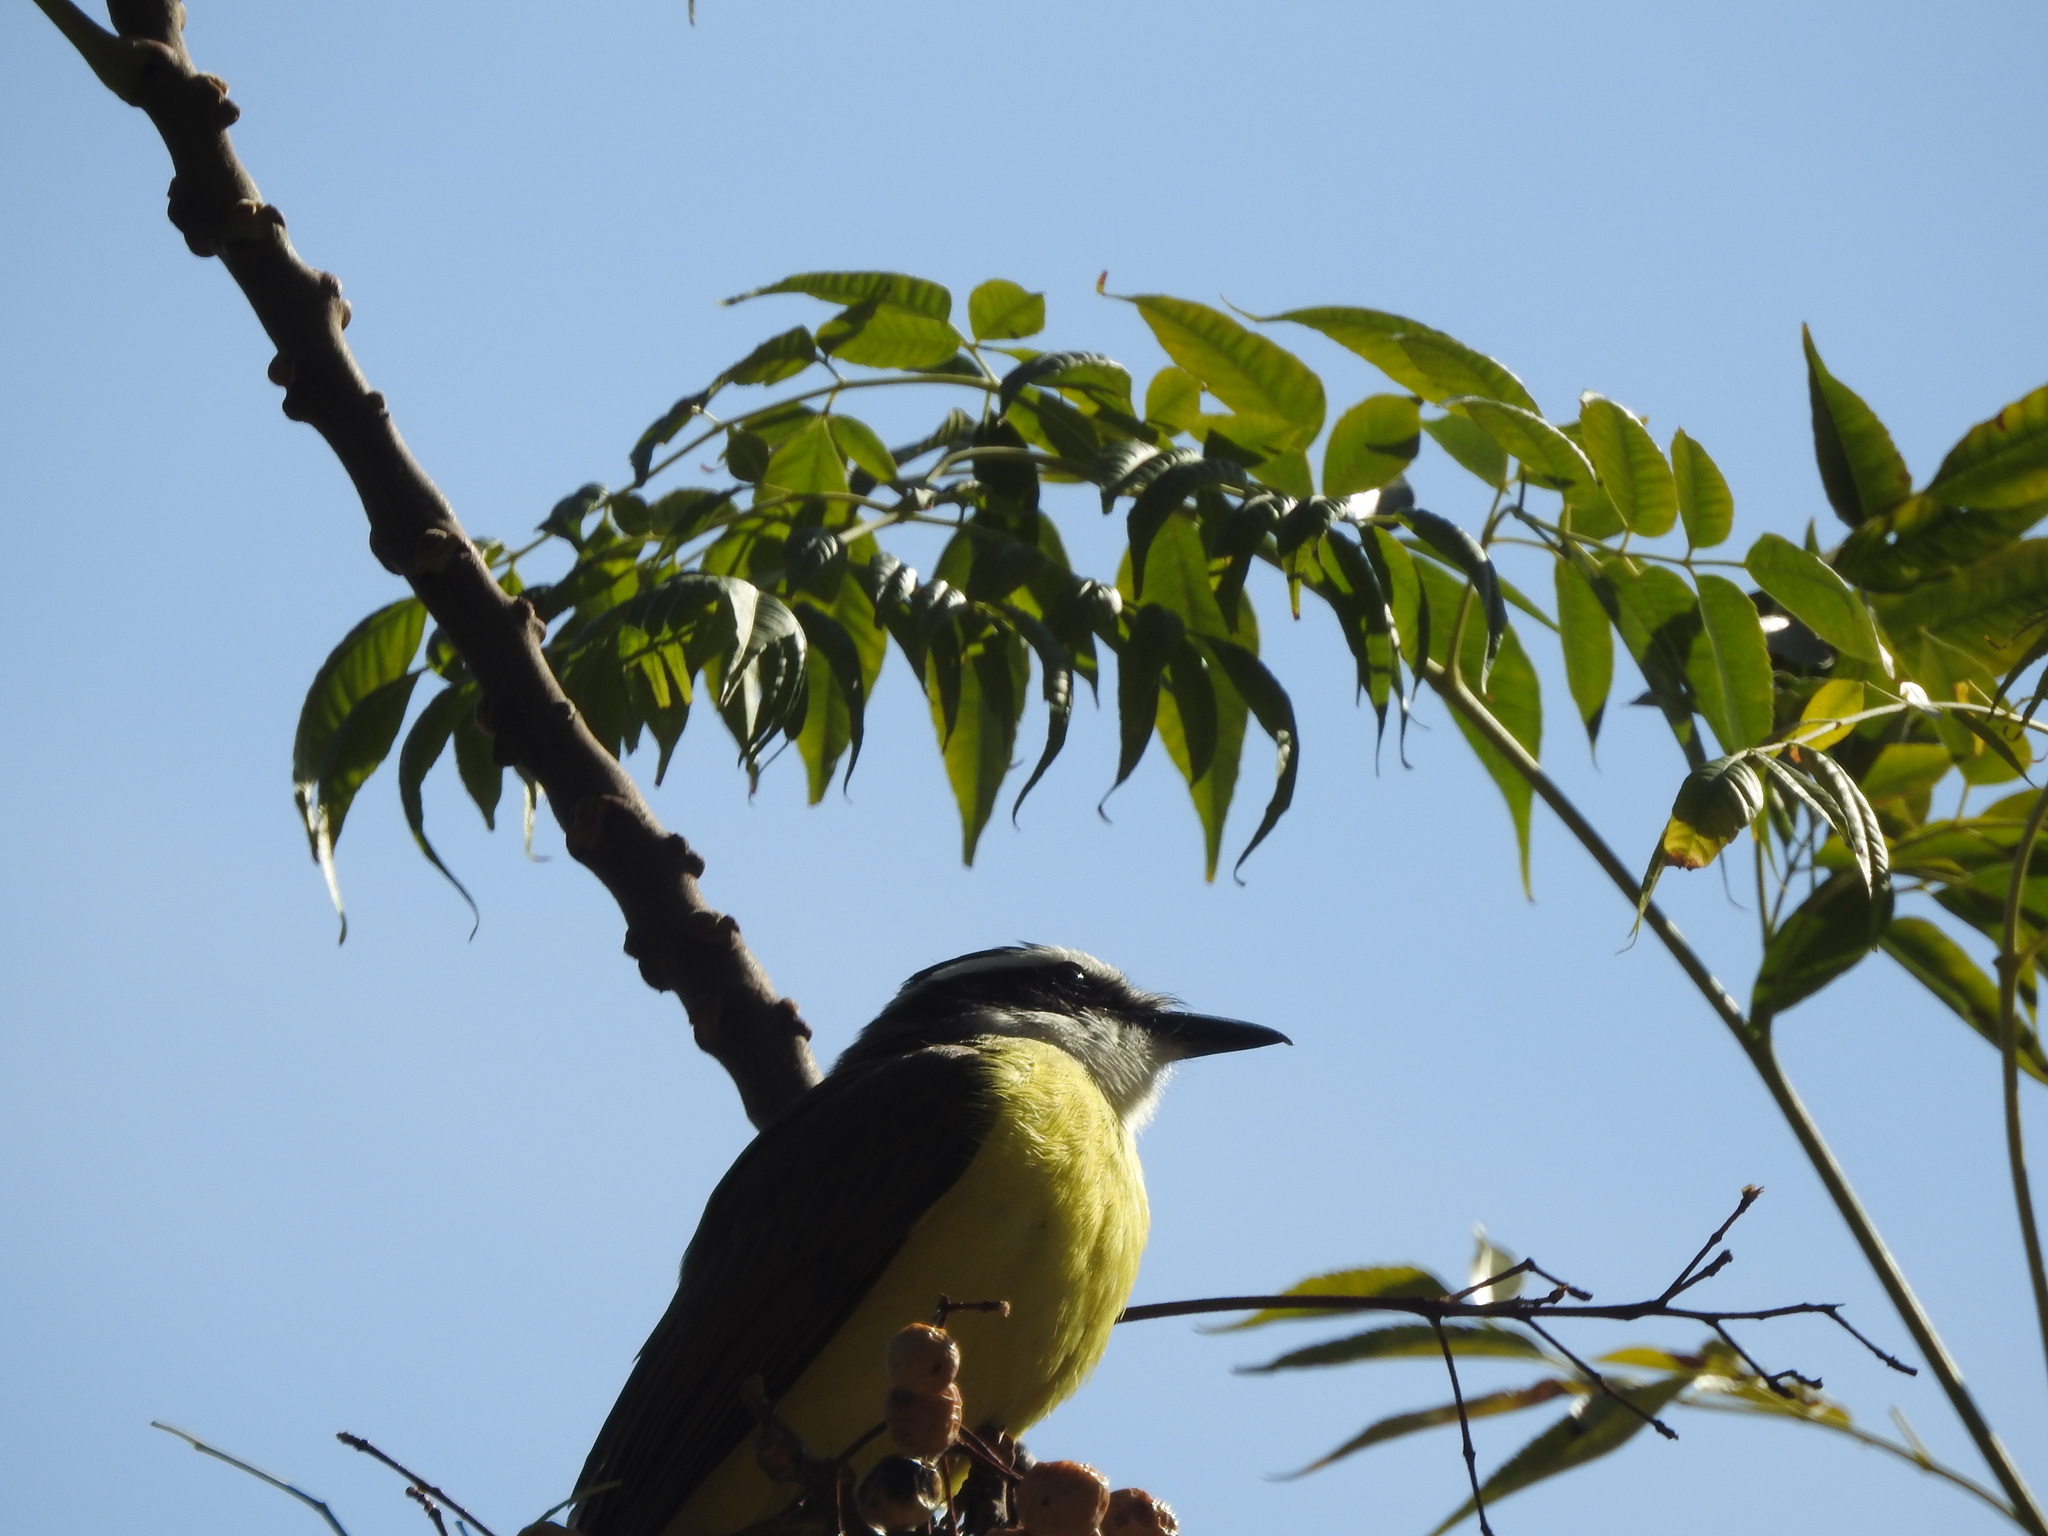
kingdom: Animalia
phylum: Chordata
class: Aves
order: Passeriformes
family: Tyrannidae
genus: Pitangus
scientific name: Pitangus sulphuratus
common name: Great kiskadee
